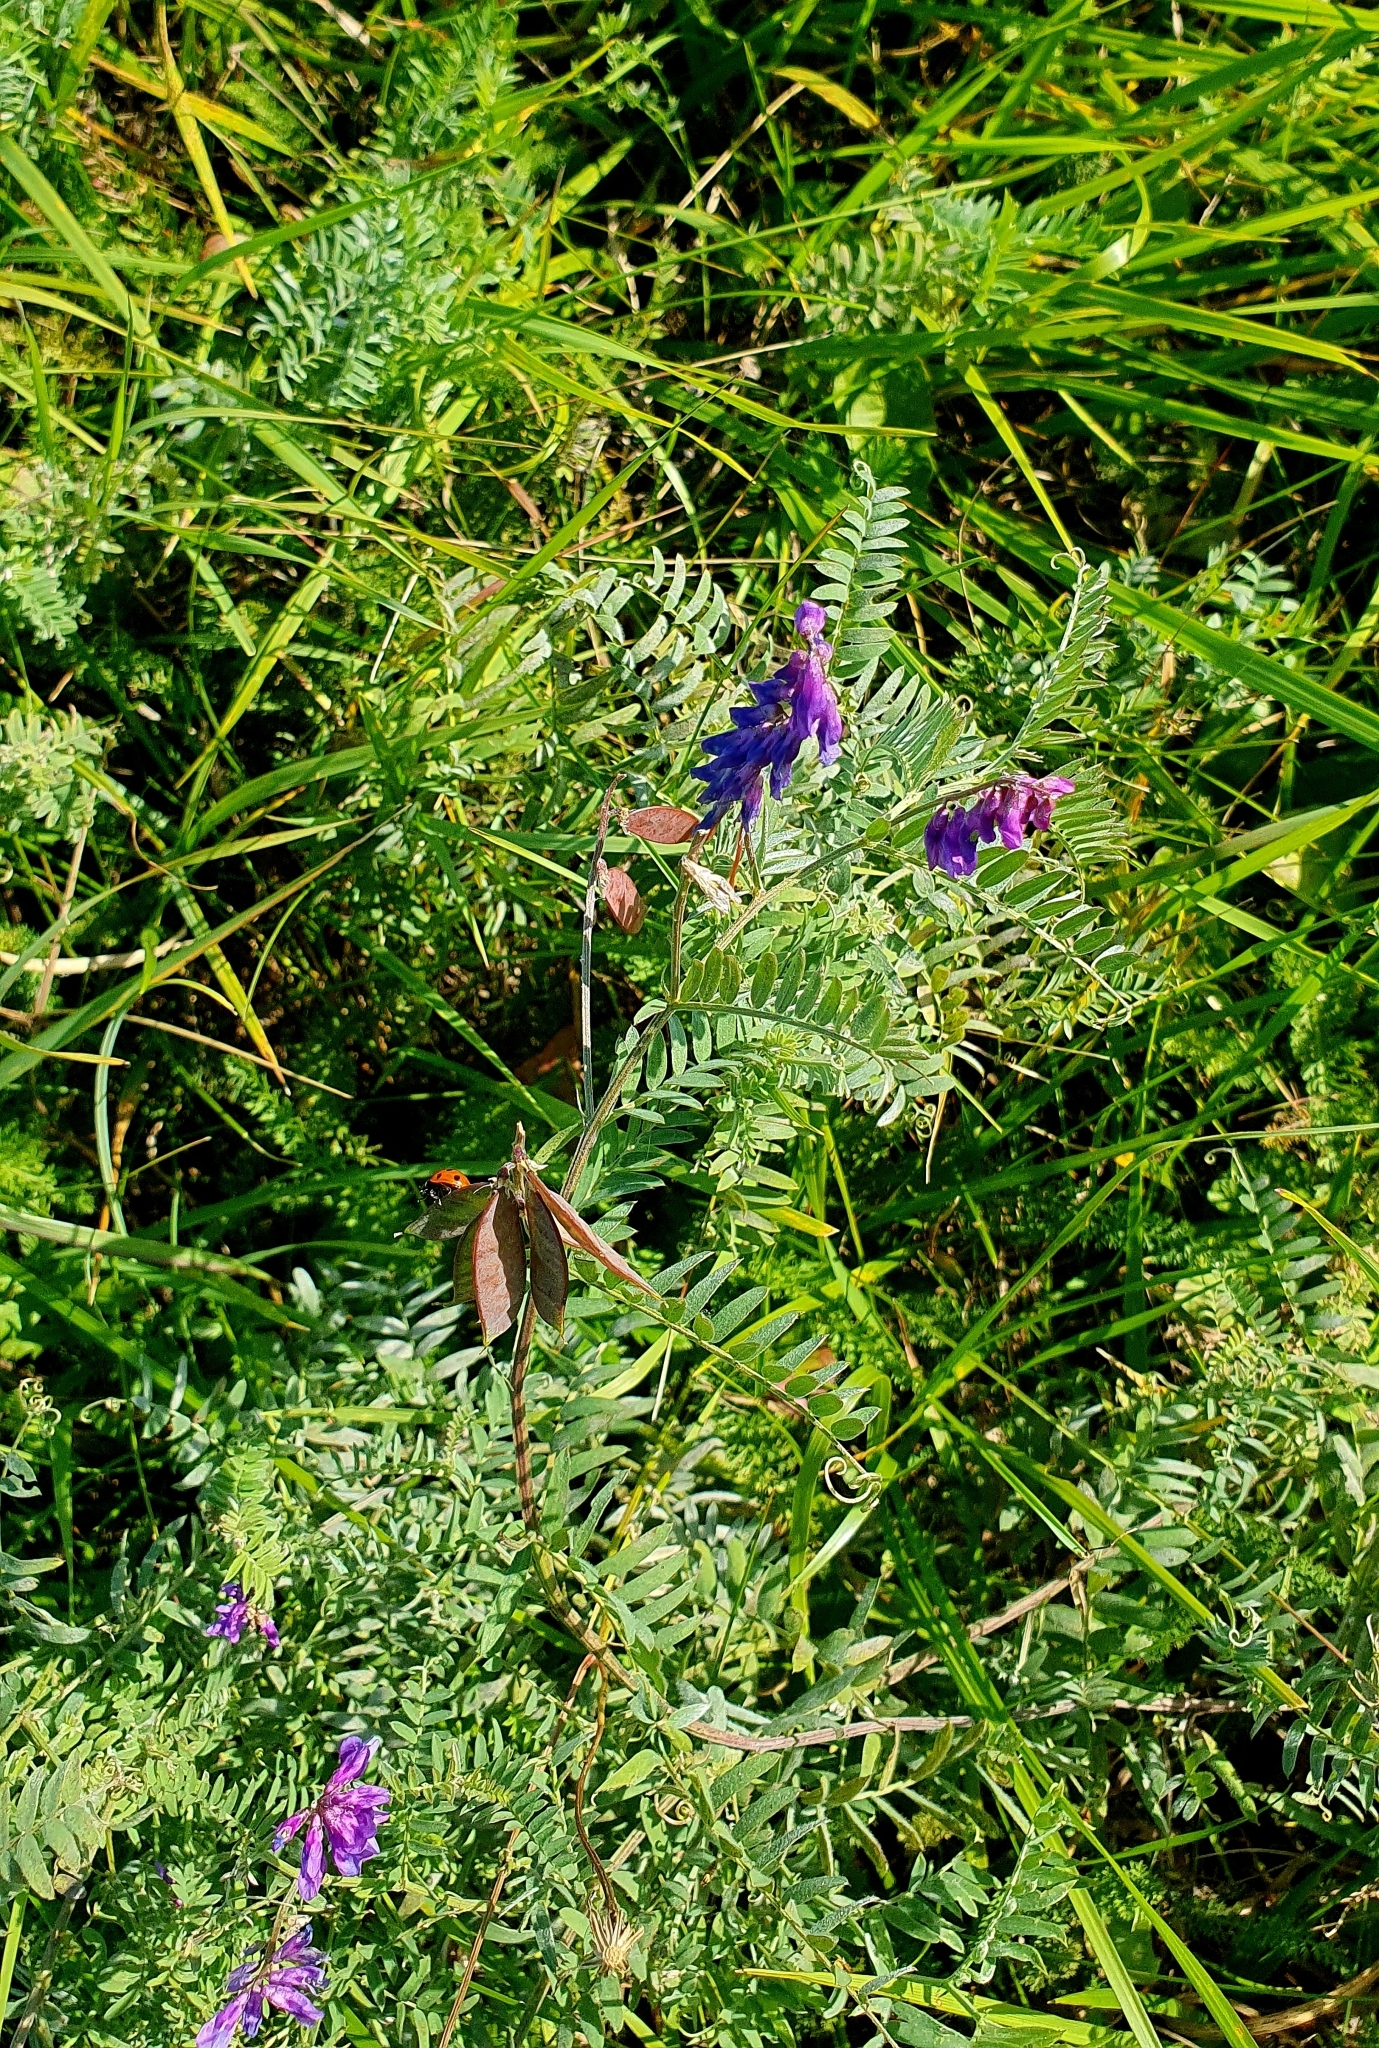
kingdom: Plantae
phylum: Tracheophyta
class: Magnoliopsida
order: Fabales
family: Fabaceae
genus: Vicia
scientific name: Vicia cracca
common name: Bird vetch
